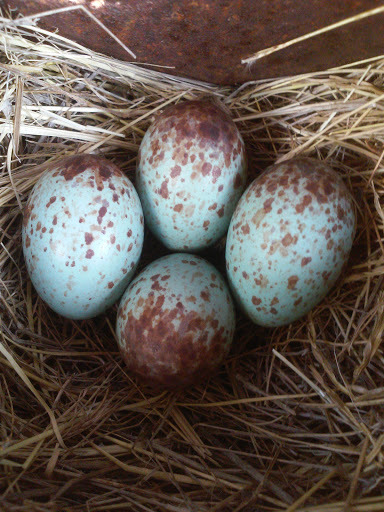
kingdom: Animalia
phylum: Chordata
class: Aves
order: Passeriformes
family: Mimidae
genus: Mimus
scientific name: Mimus polyglottos
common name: Northern mockingbird
